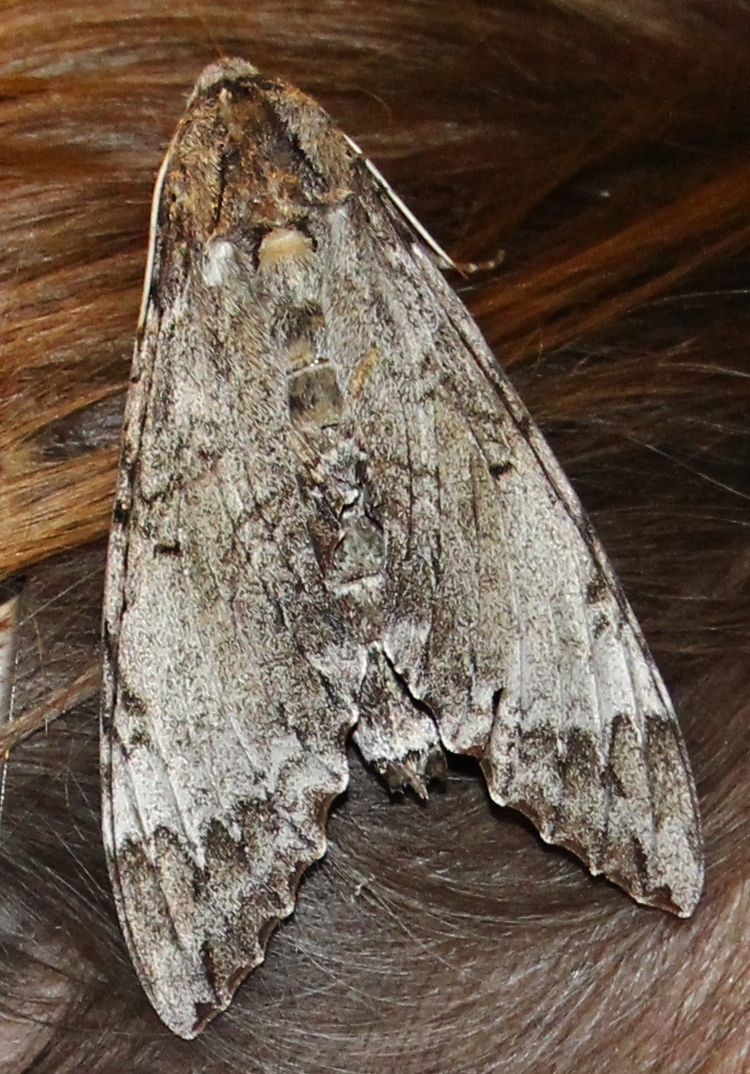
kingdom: Animalia
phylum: Arthropoda
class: Insecta
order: Lepidoptera
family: Sphingidae
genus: Pseudosphinx
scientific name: Pseudosphinx tetrio
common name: Tetrio sphinx
